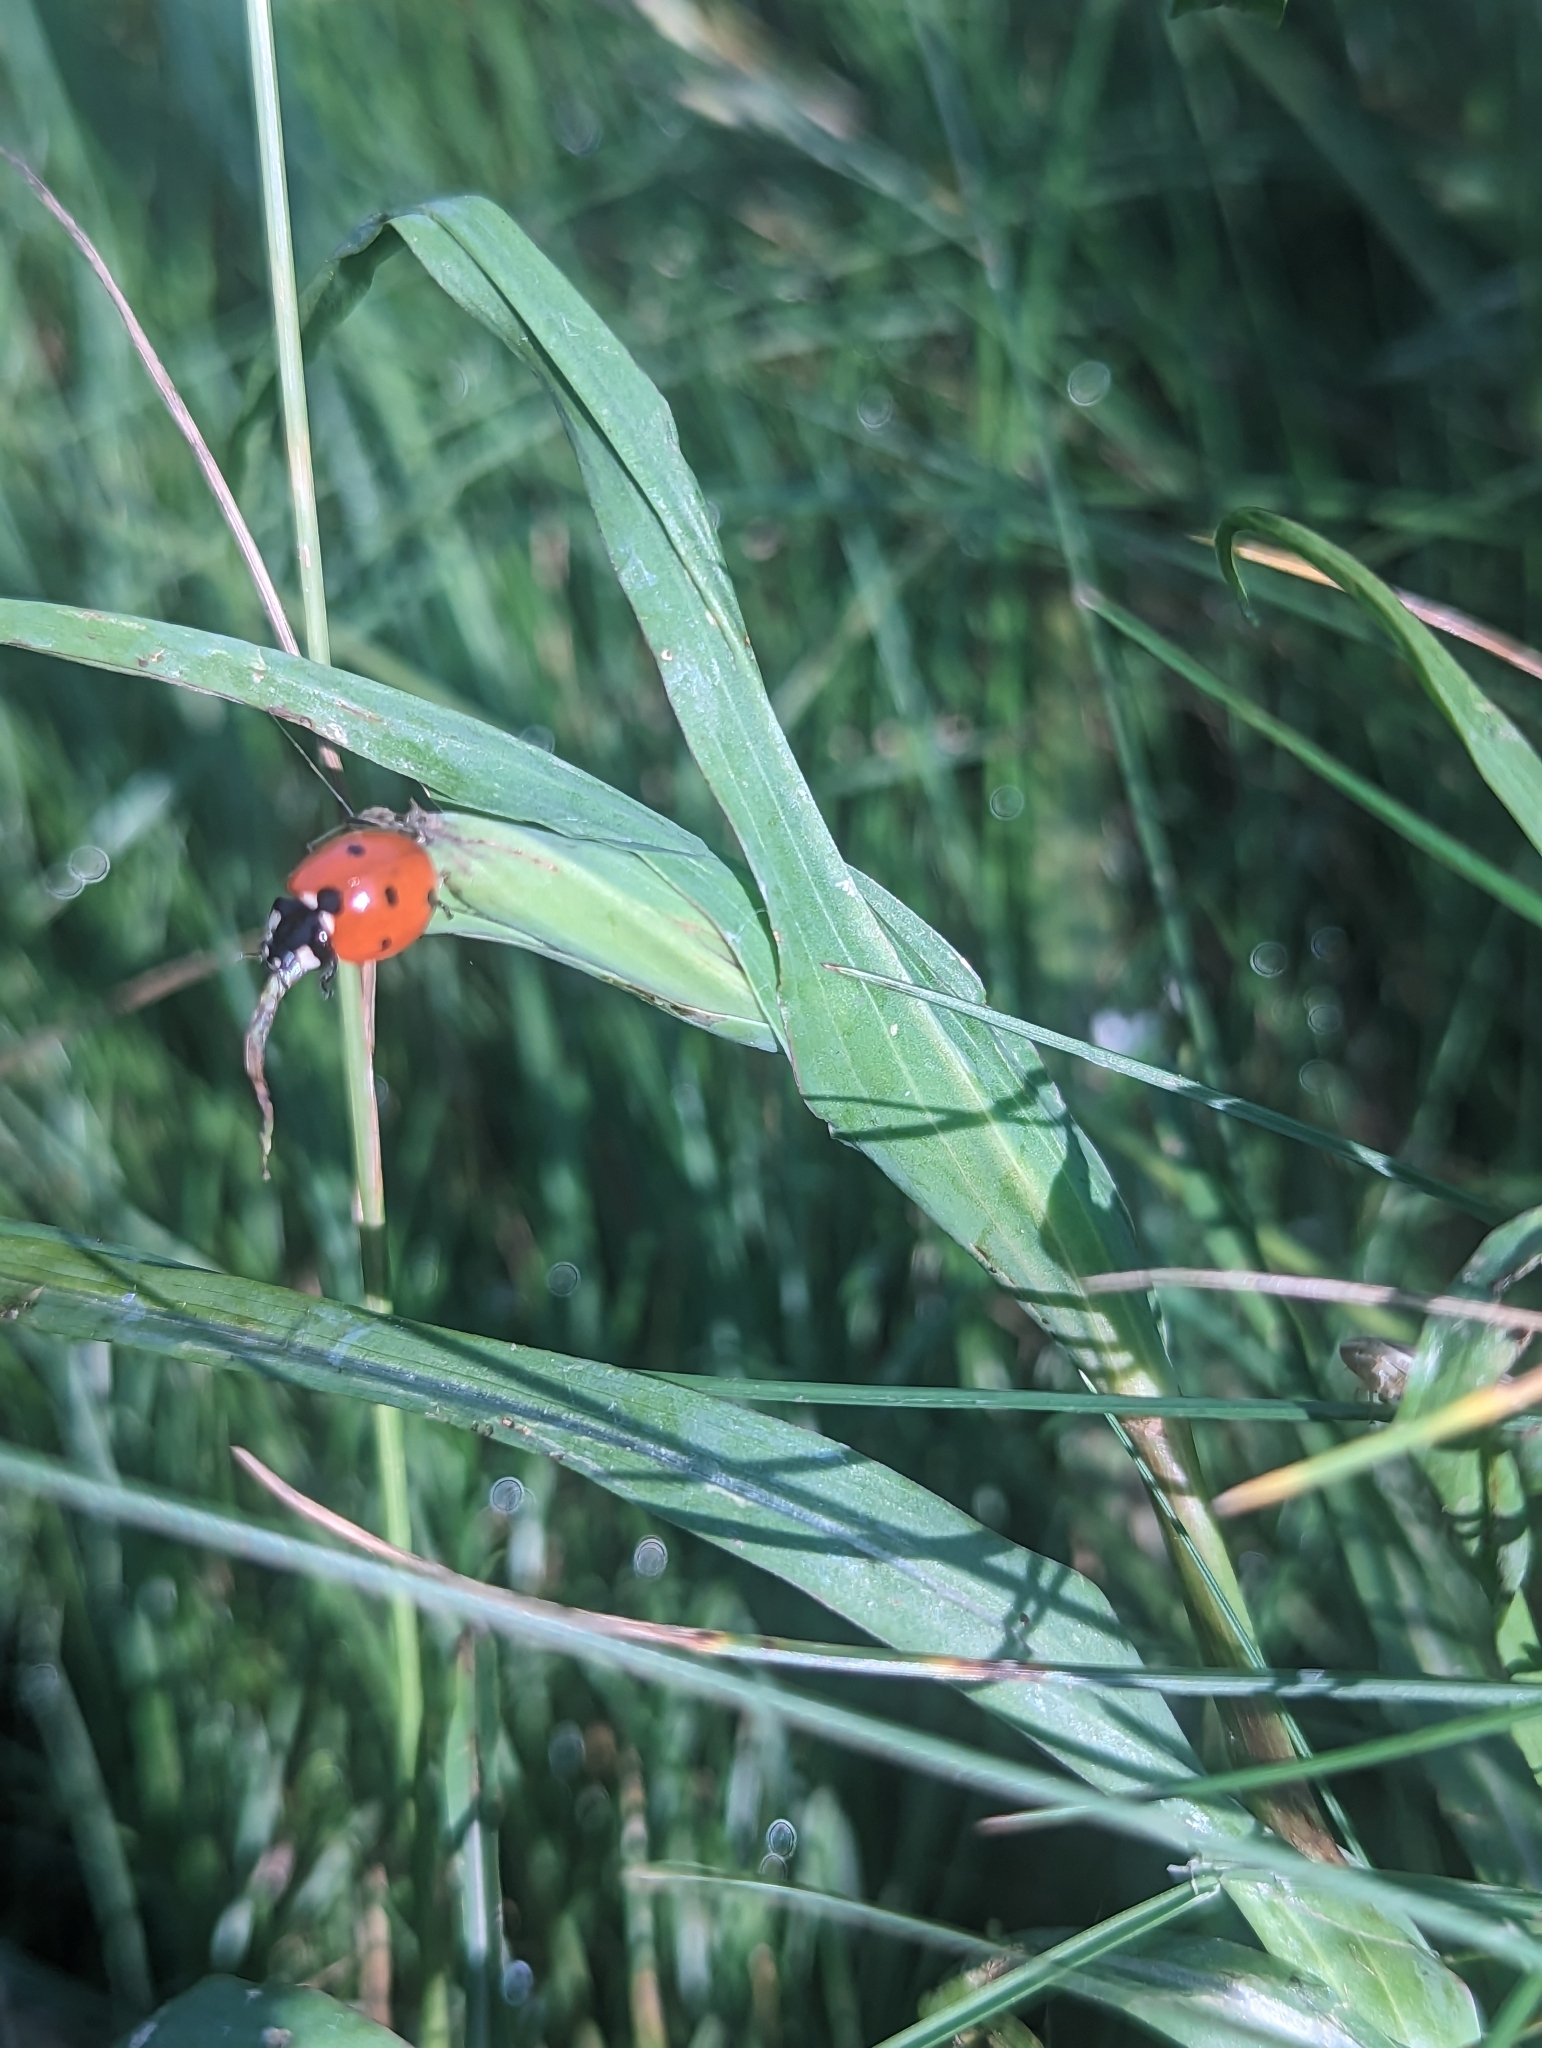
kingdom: Animalia
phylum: Arthropoda
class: Insecta
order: Coleoptera
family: Coccinellidae
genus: Coccinella
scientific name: Coccinella septempunctata
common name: Sevenspotted lady beetle
